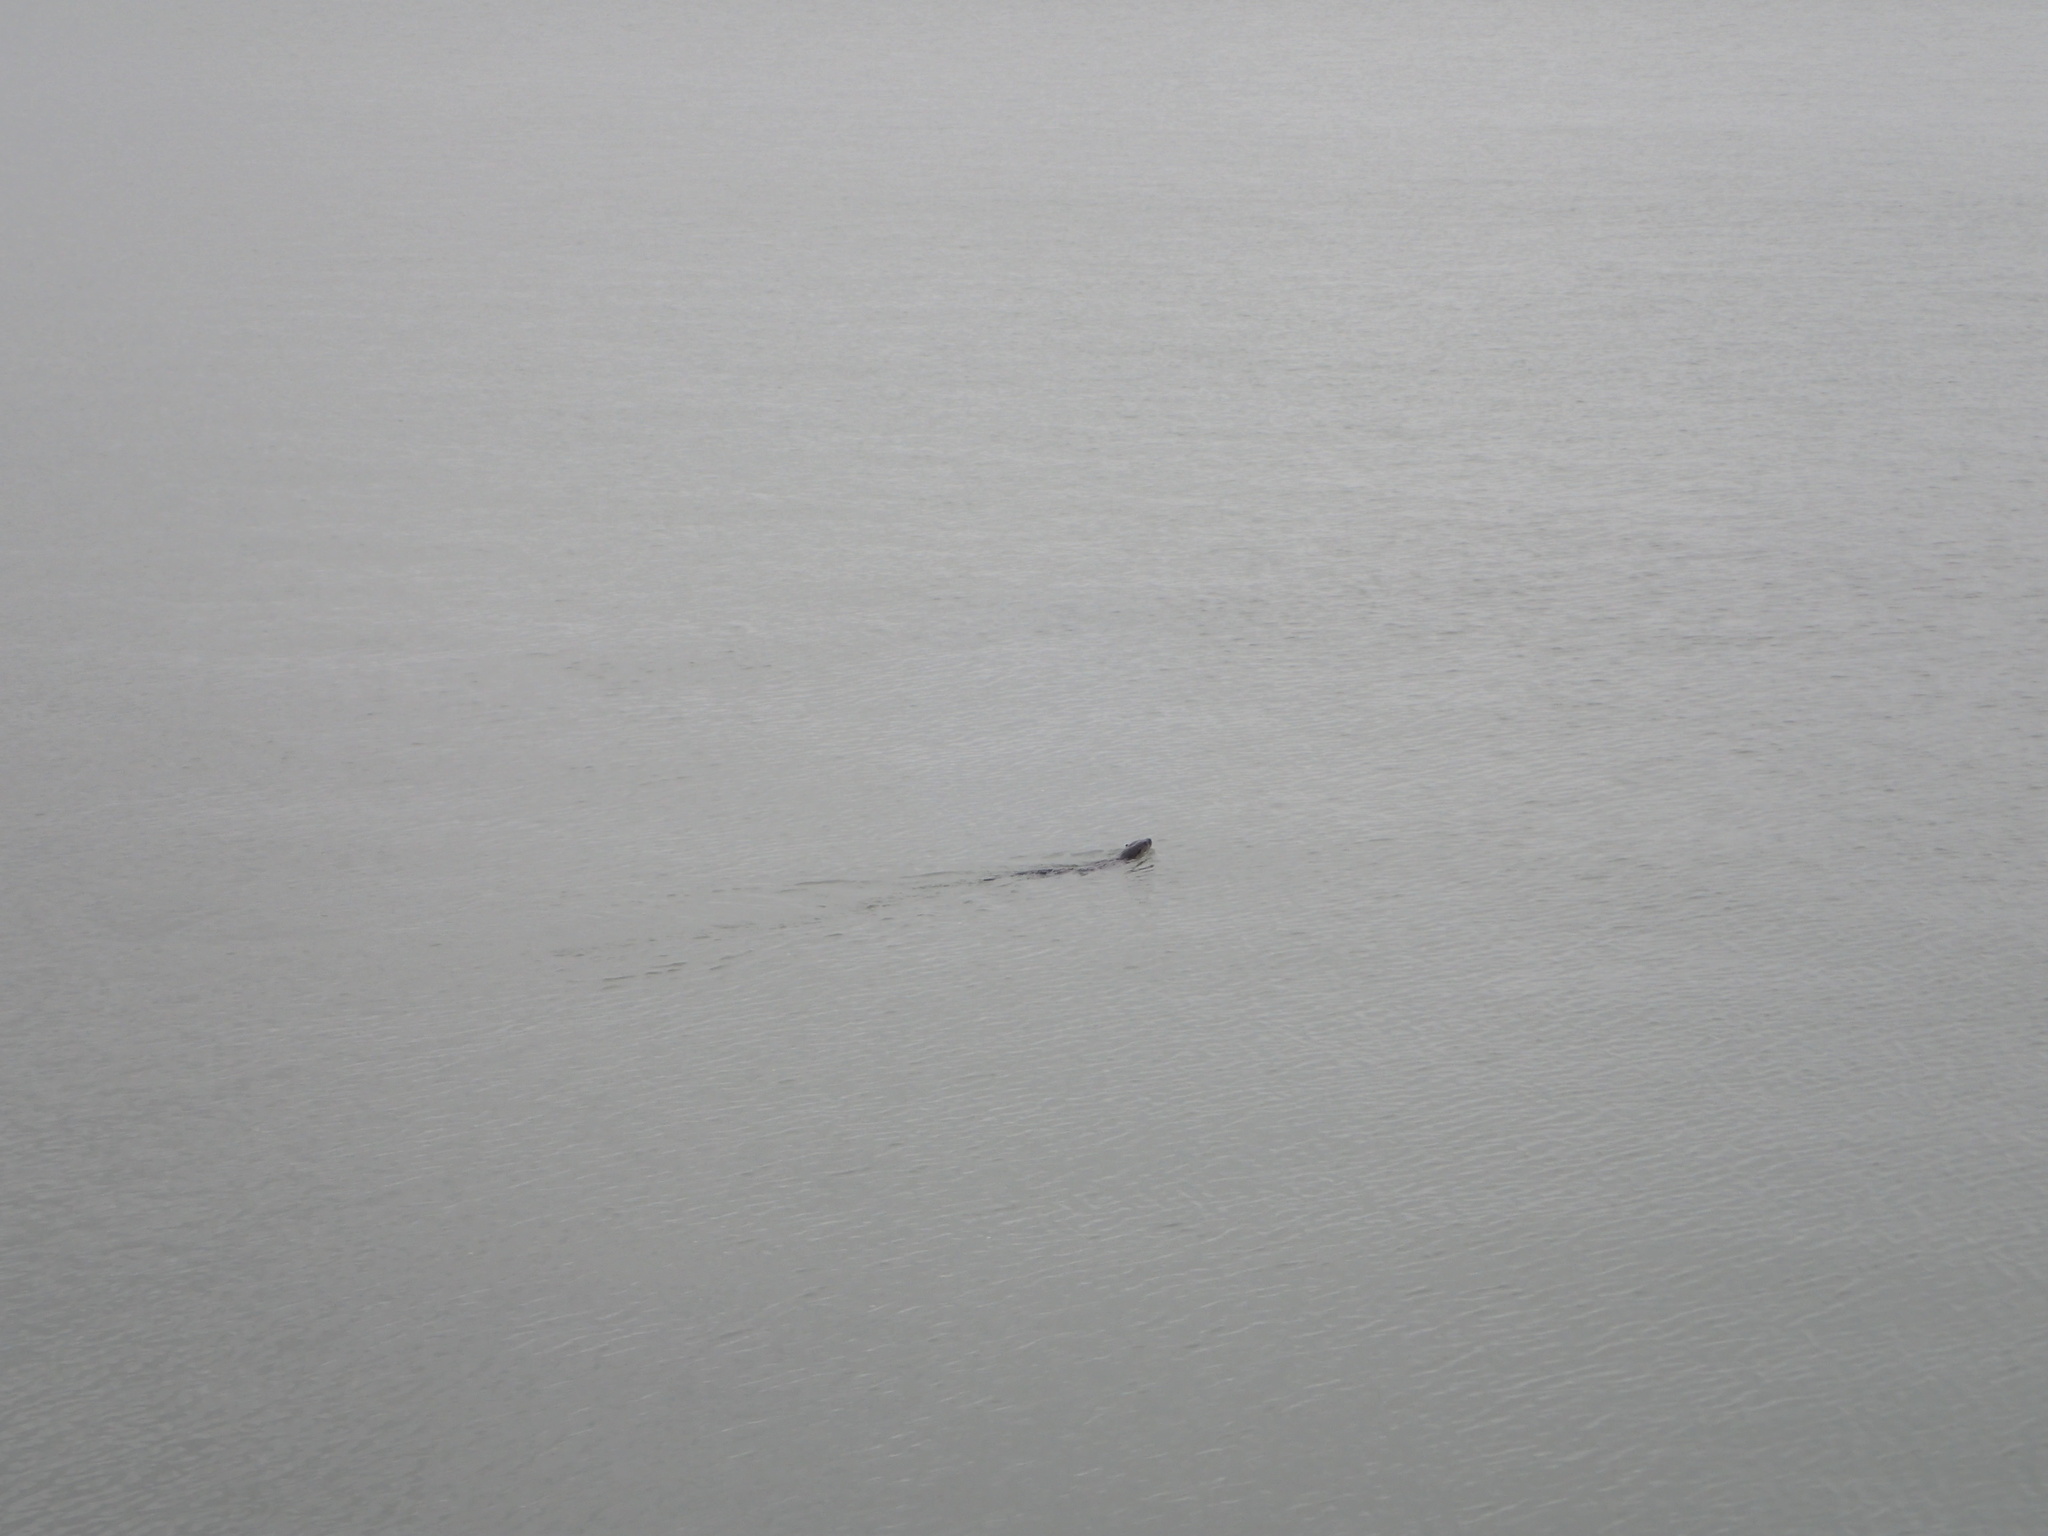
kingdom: Animalia
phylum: Chordata
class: Mammalia
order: Carnivora
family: Mustelidae
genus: Lontra
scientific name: Lontra canadensis
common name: North american river otter
